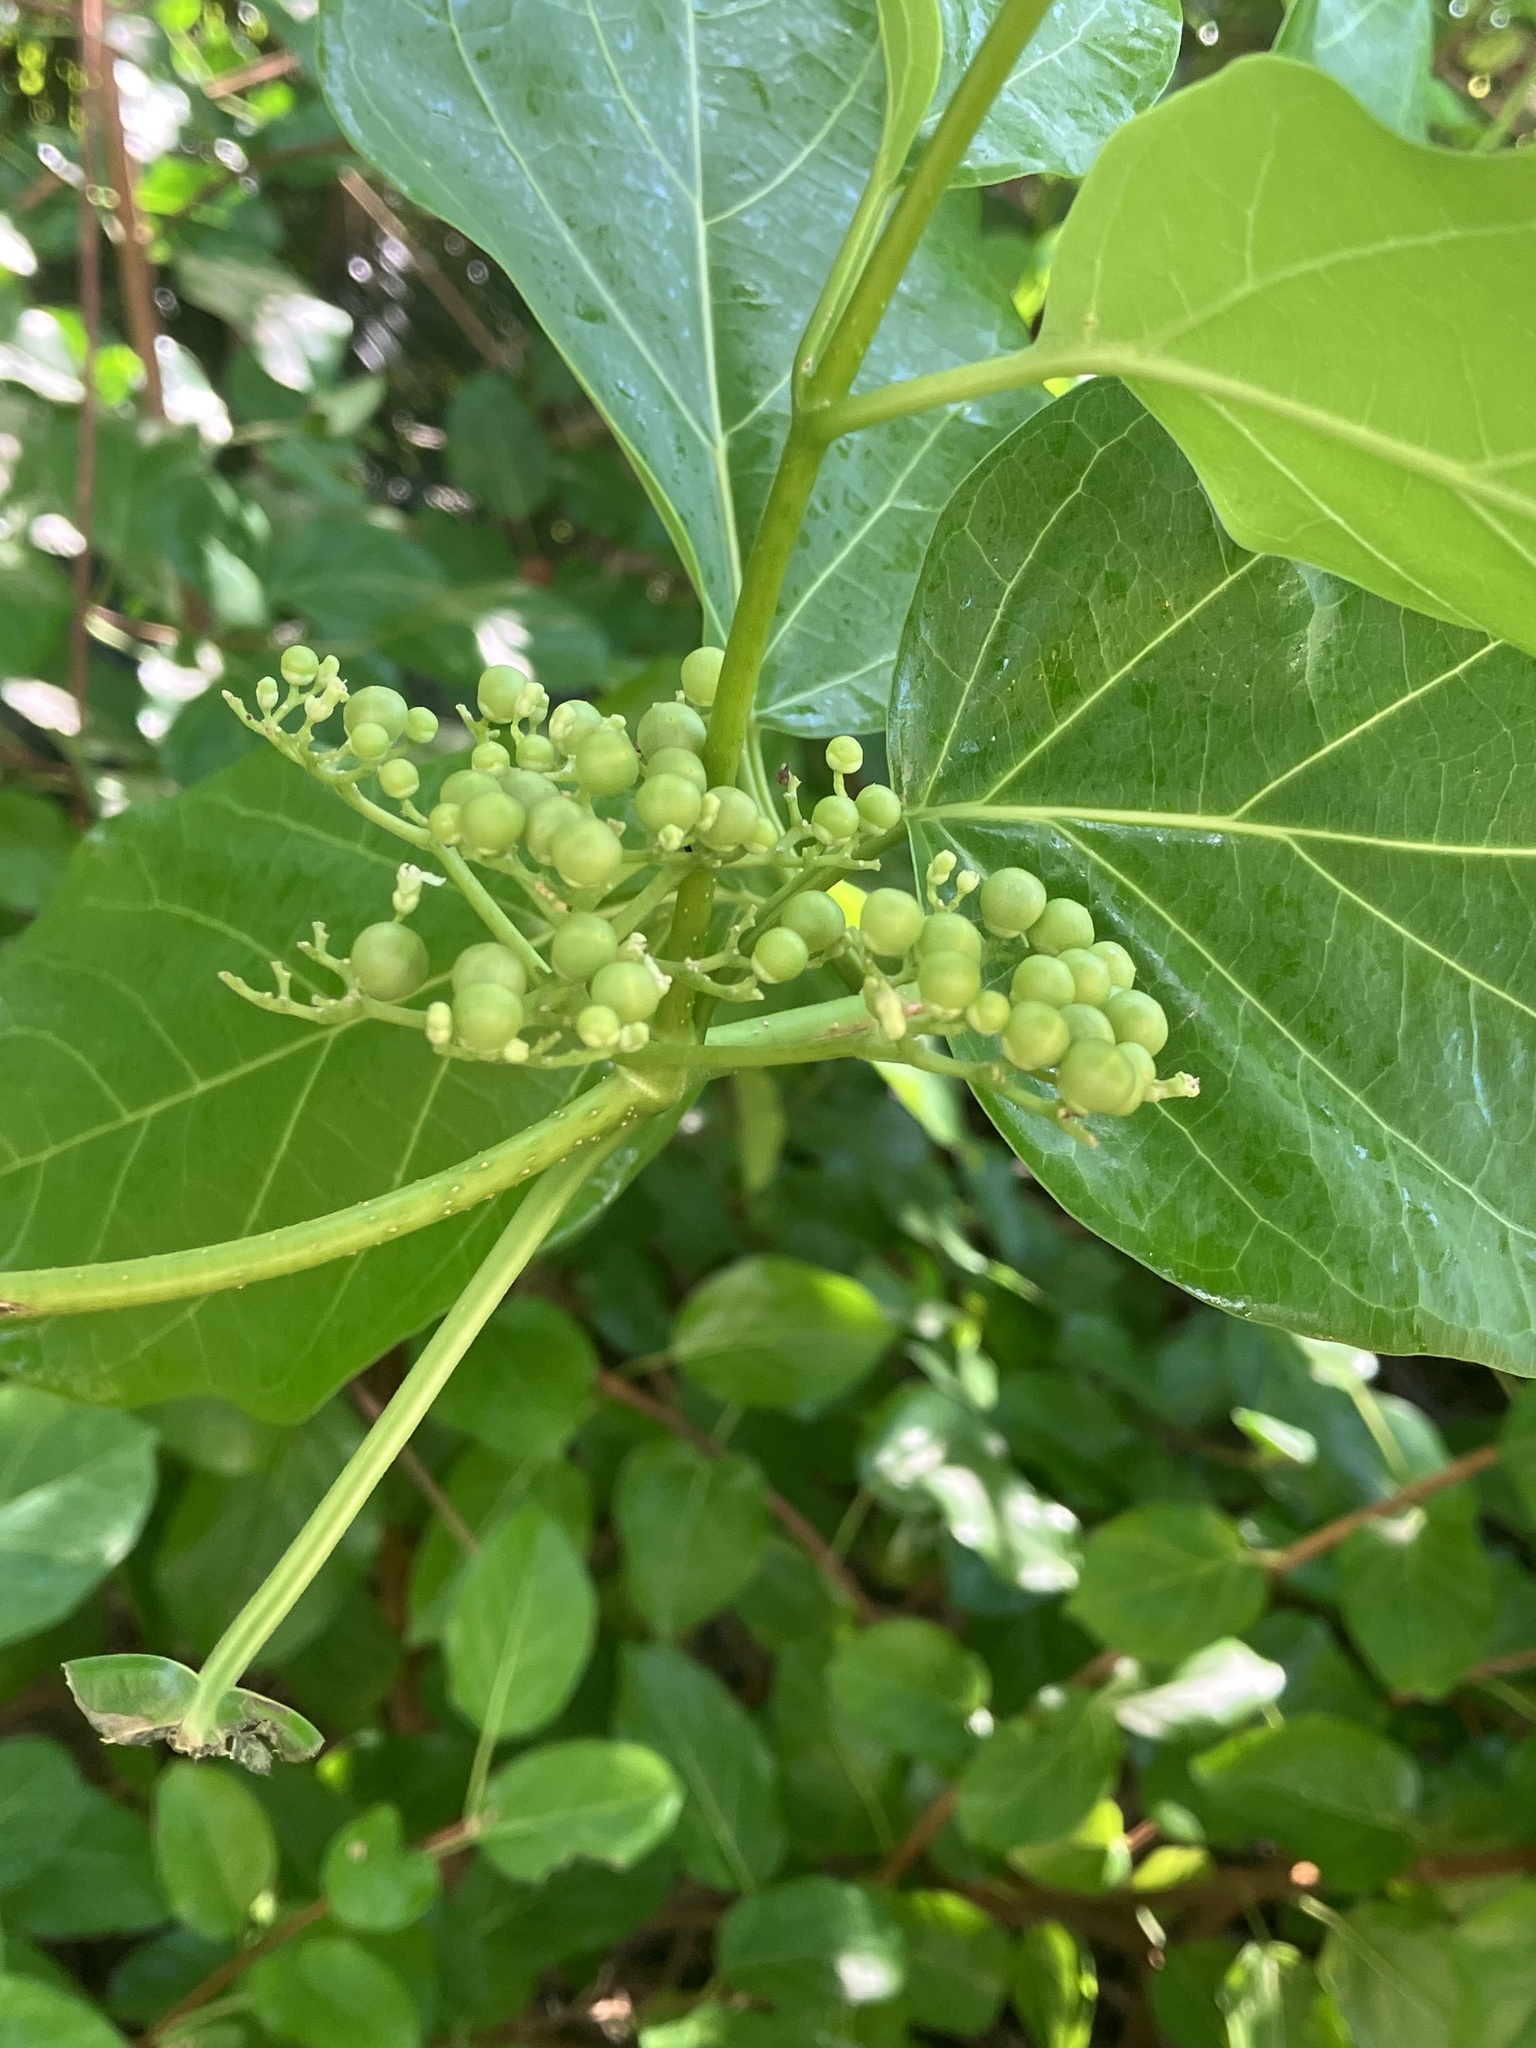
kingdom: Plantae
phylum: Tracheophyta
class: Magnoliopsida
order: Lamiales
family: Lamiaceae
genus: Premna
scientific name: Premna serratifolia
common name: Bastard guelder
